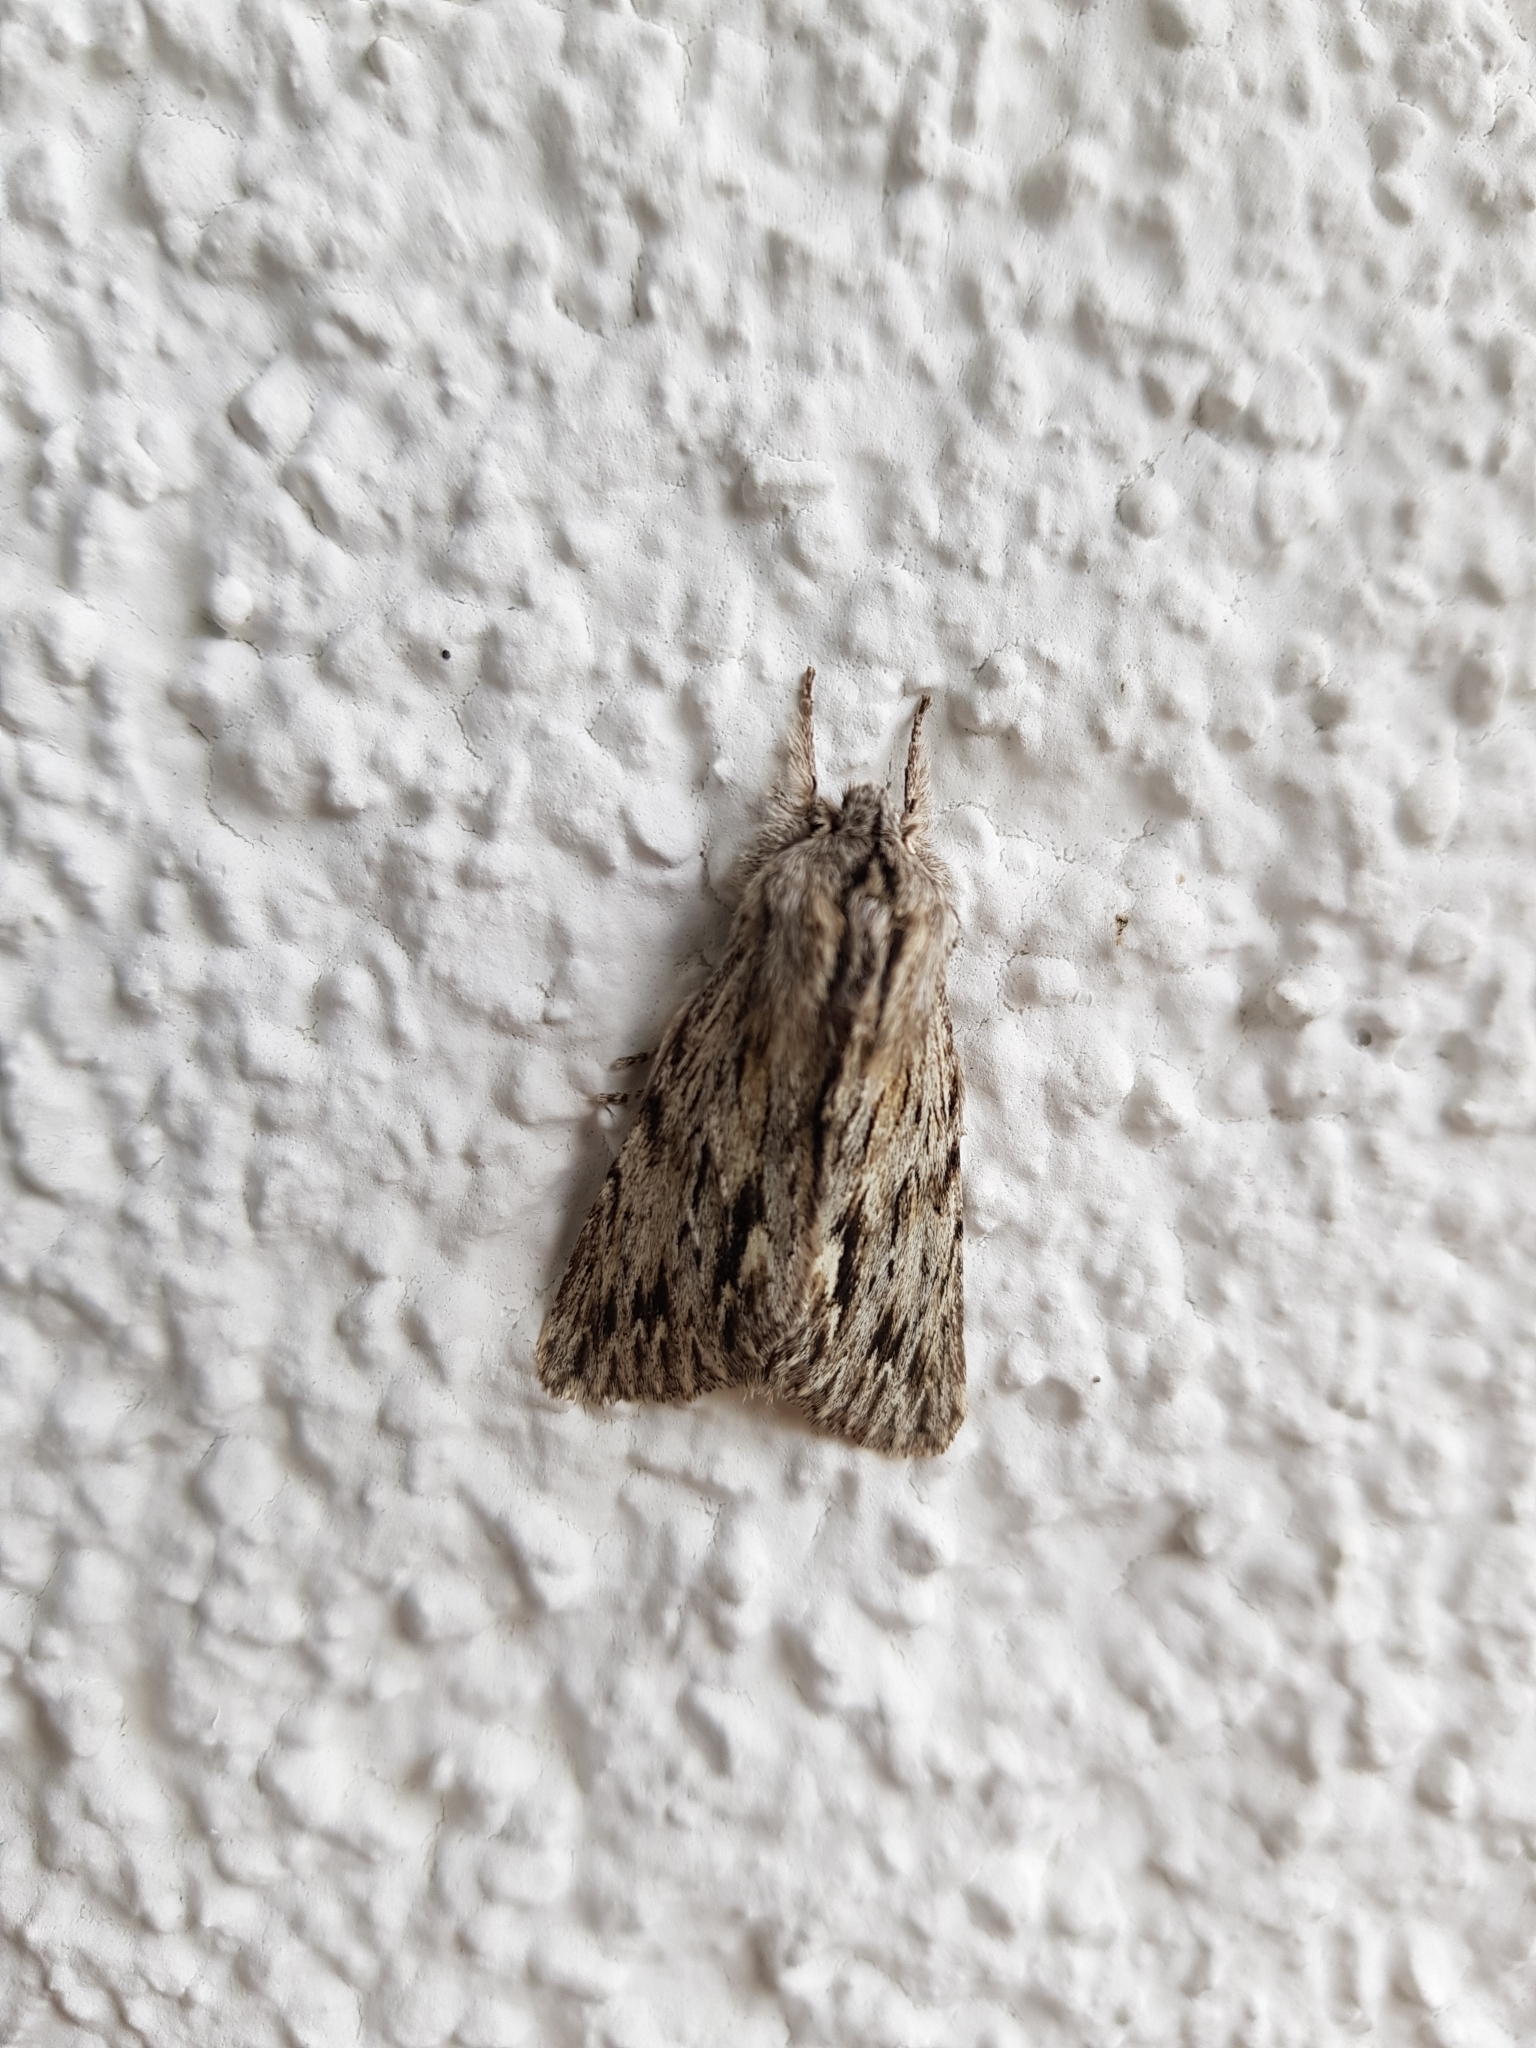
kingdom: Animalia
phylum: Arthropoda
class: Insecta
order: Lepidoptera
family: Noctuidae
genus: Asteroscopus
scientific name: Asteroscopus sphinx
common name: The sprawler
